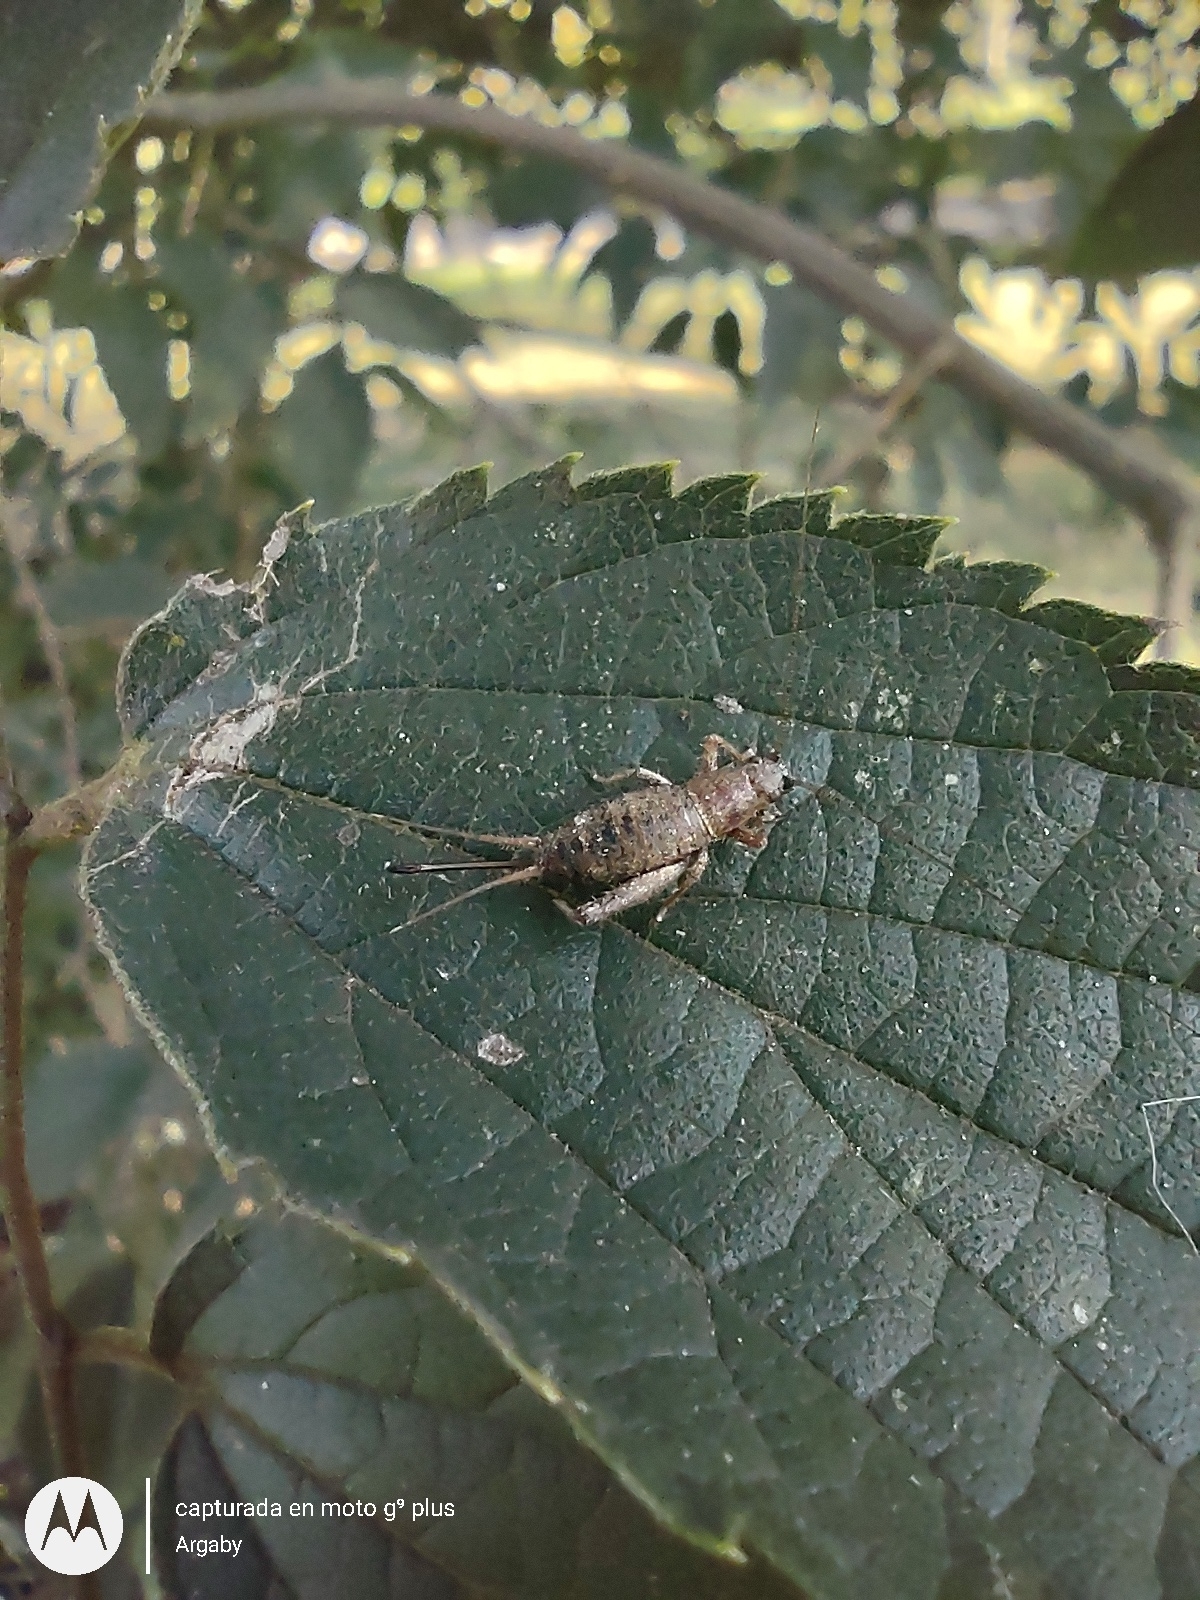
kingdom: Animalia
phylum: Arthropoda
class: Insecta
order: Orthoptera
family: Mogoplistidae
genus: Ornebius
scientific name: Ornebius alatus
